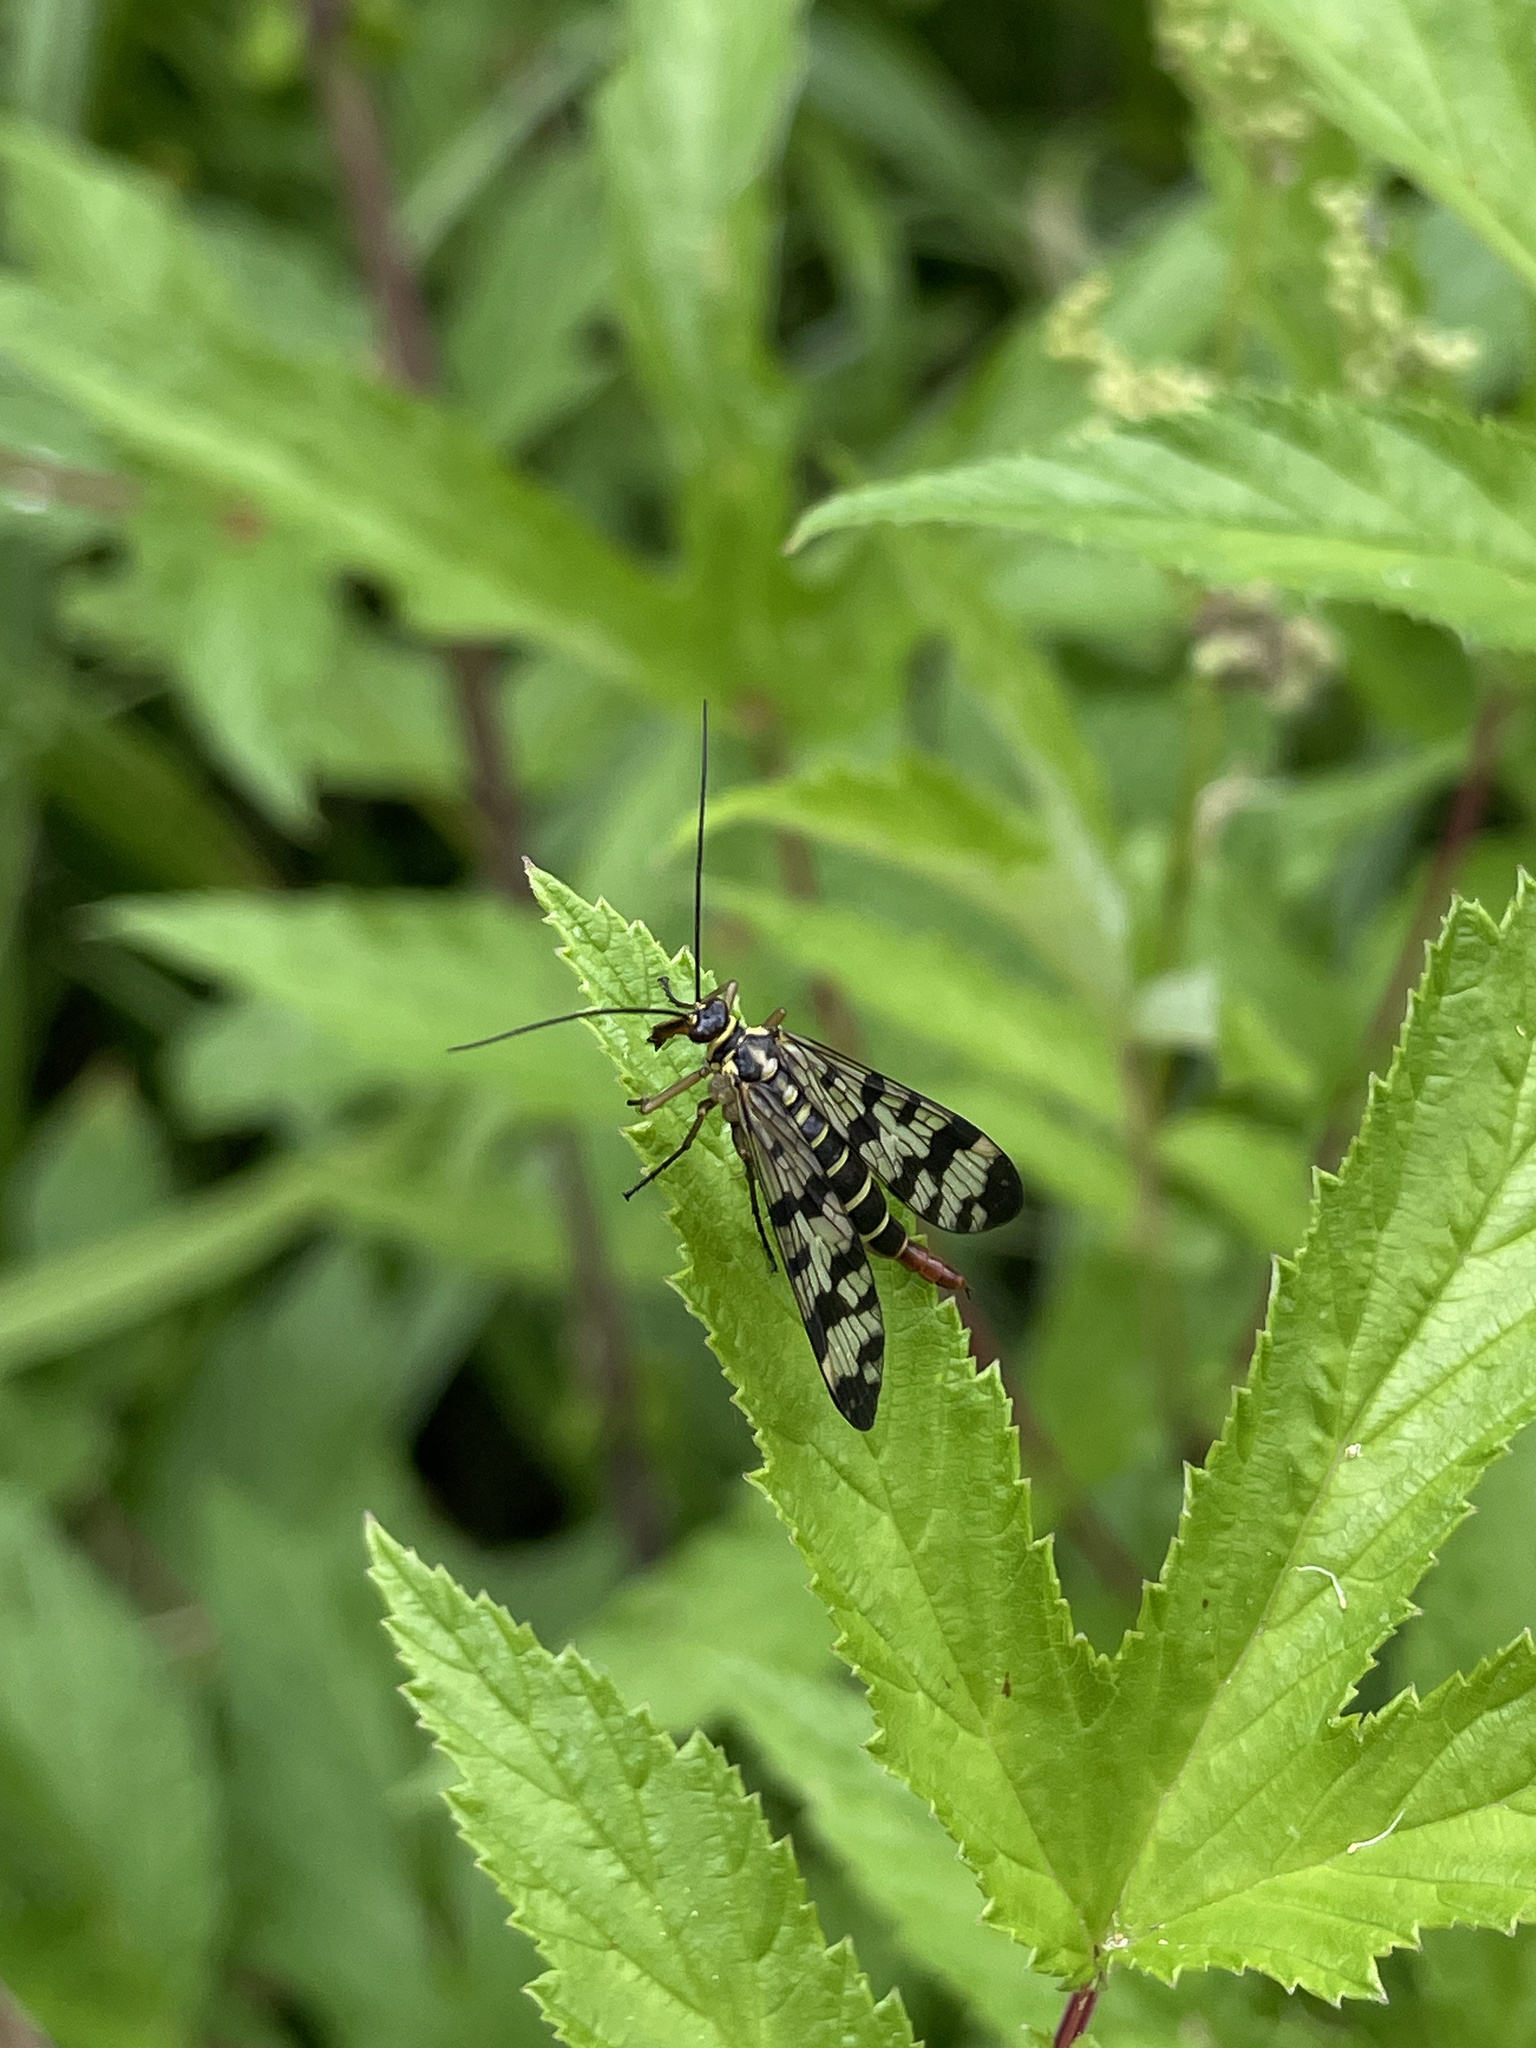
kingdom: Animalia
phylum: Arthropoda
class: Insecta
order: Mecoptera
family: Panorpidae
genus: Panorpa
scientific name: Panorpa communis
